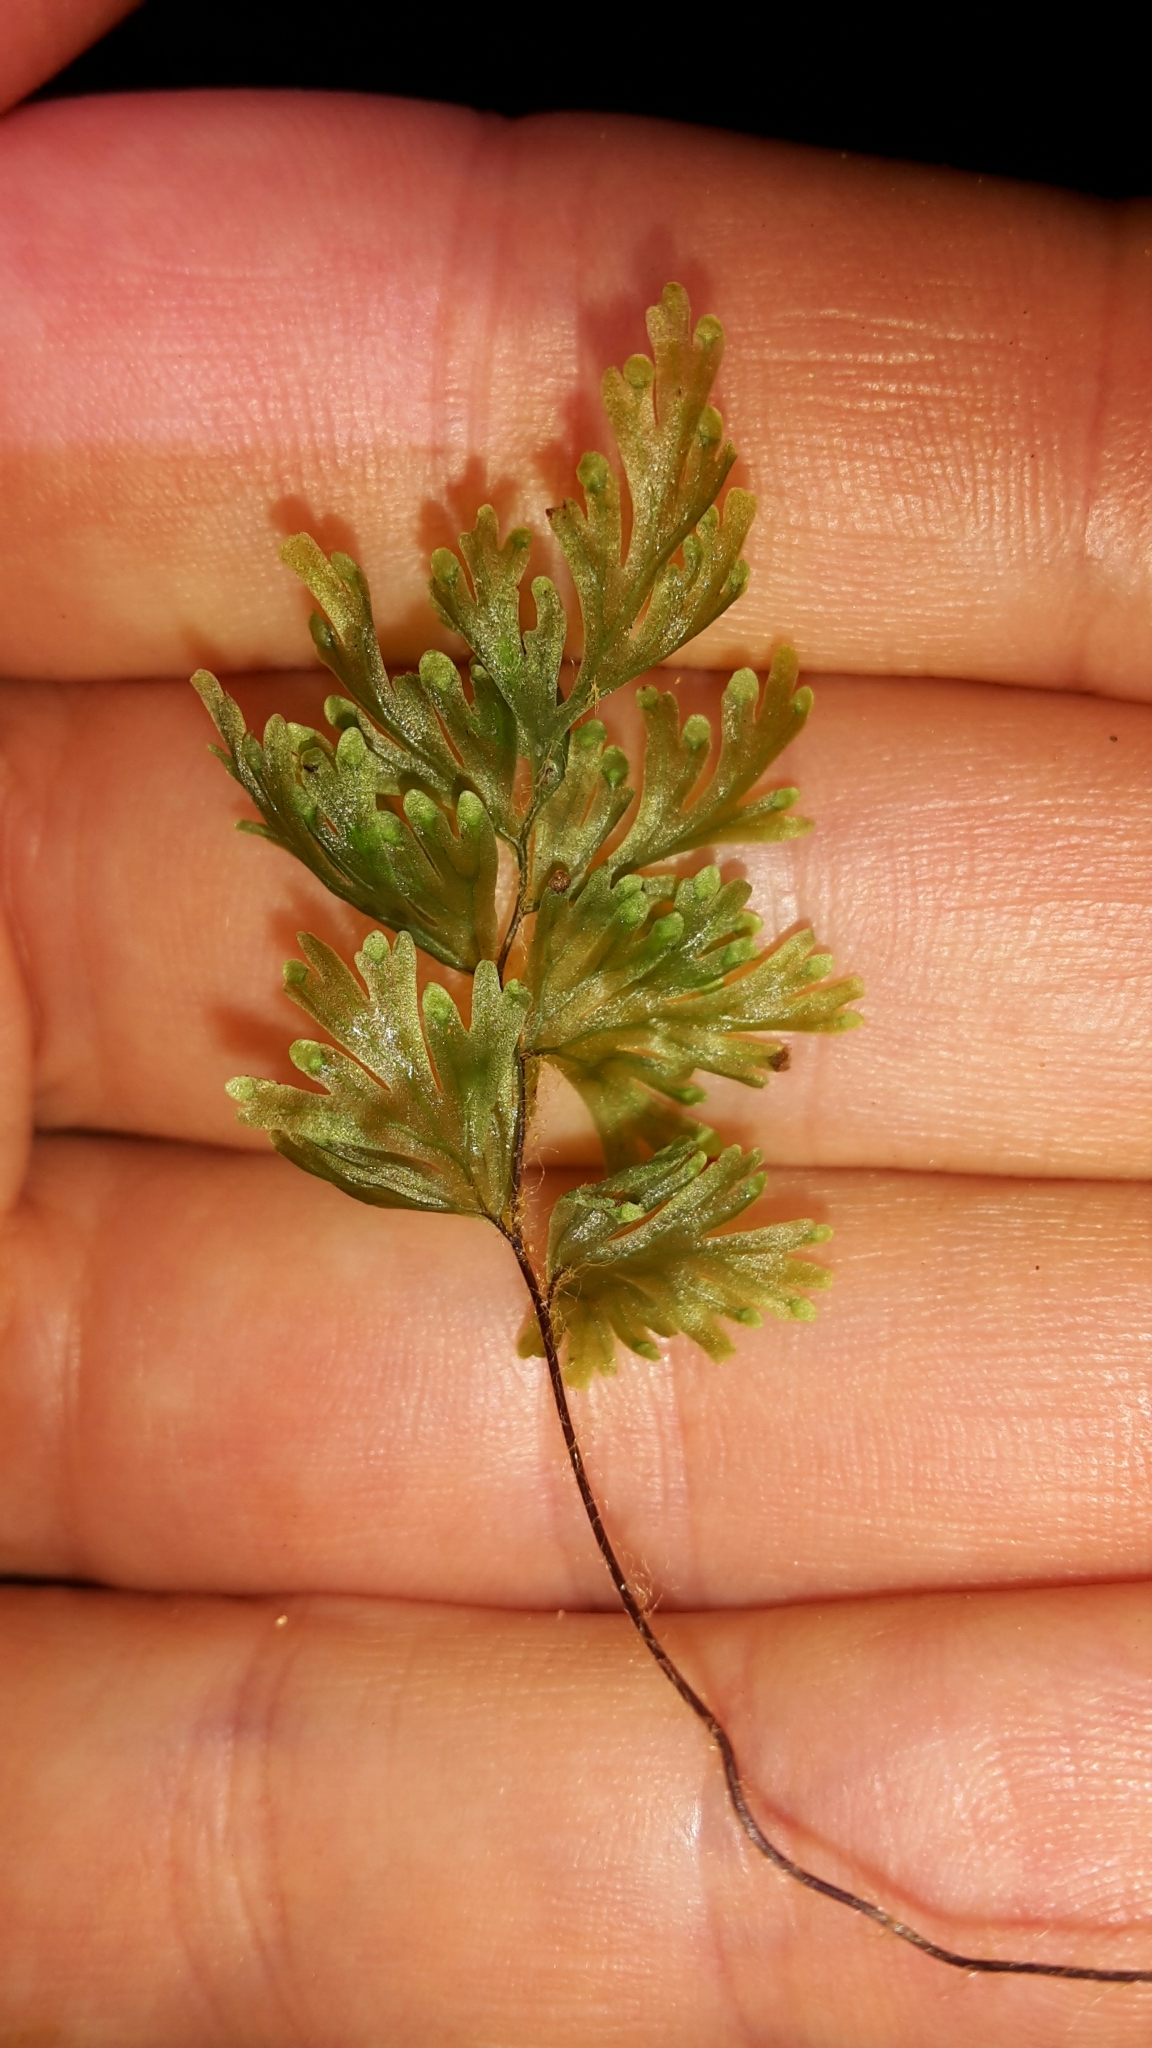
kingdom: Plantae
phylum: Tracheophyta
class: Polypodiopsida
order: Hymenophyllales
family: Hymenophyllaceae
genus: Hymenophyllum
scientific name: Hymenophyllum flabellatum
